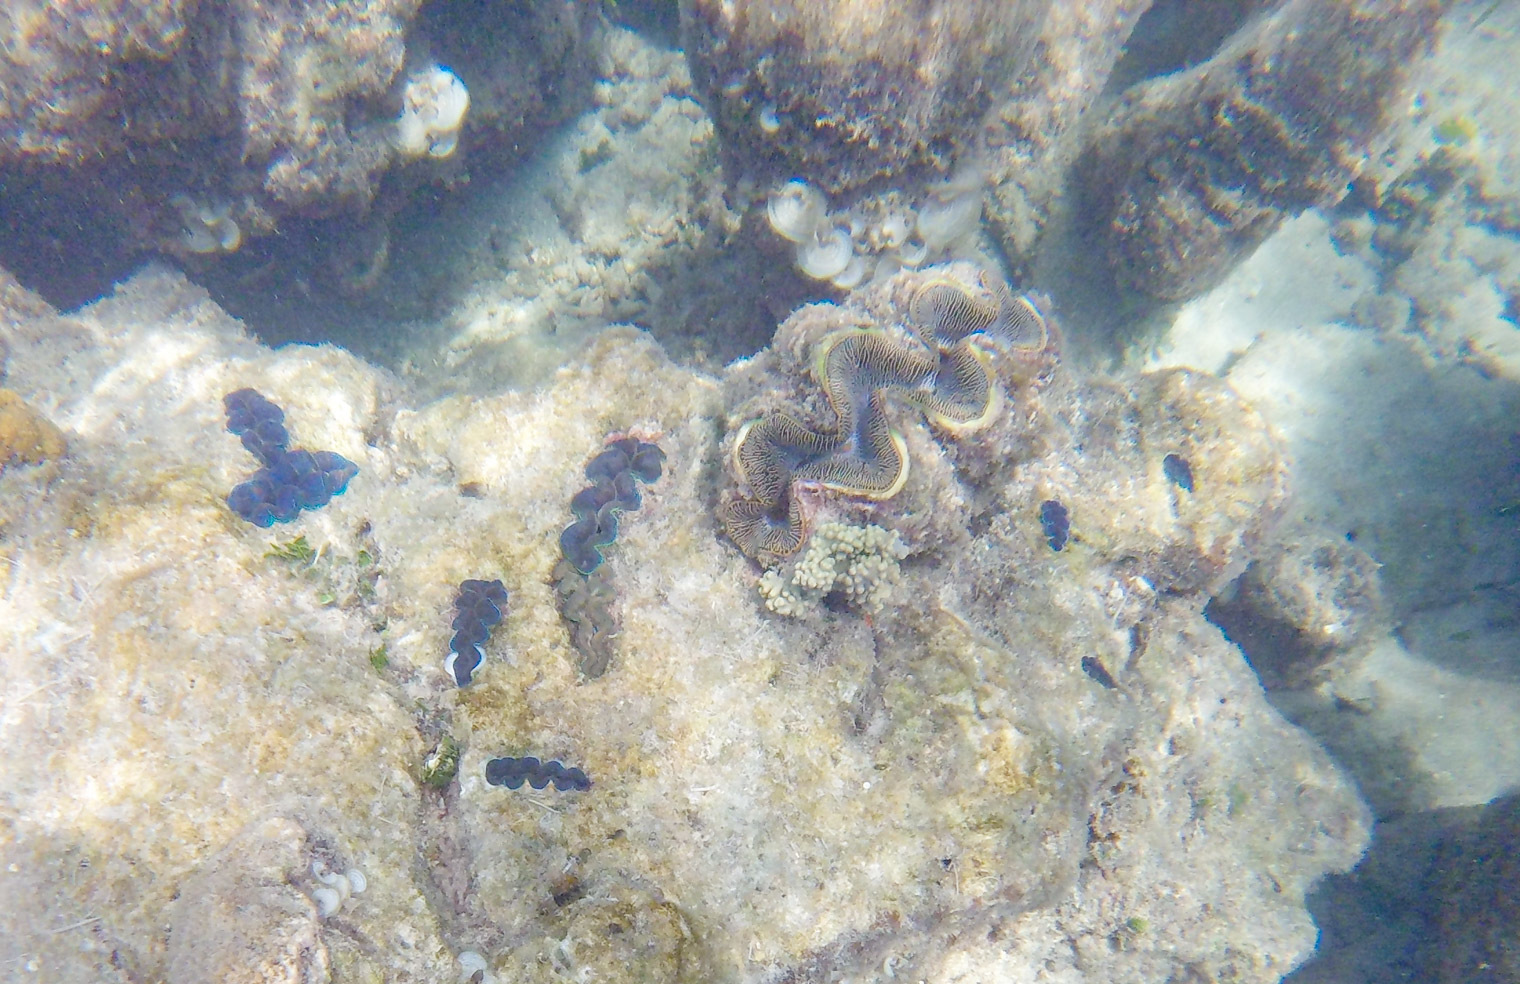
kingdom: Animalia
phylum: Mollusca
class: Bivalvia
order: Cardiida
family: Cardiidae
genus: Tridacna
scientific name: Tridacna maxima
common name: Small giant clam
